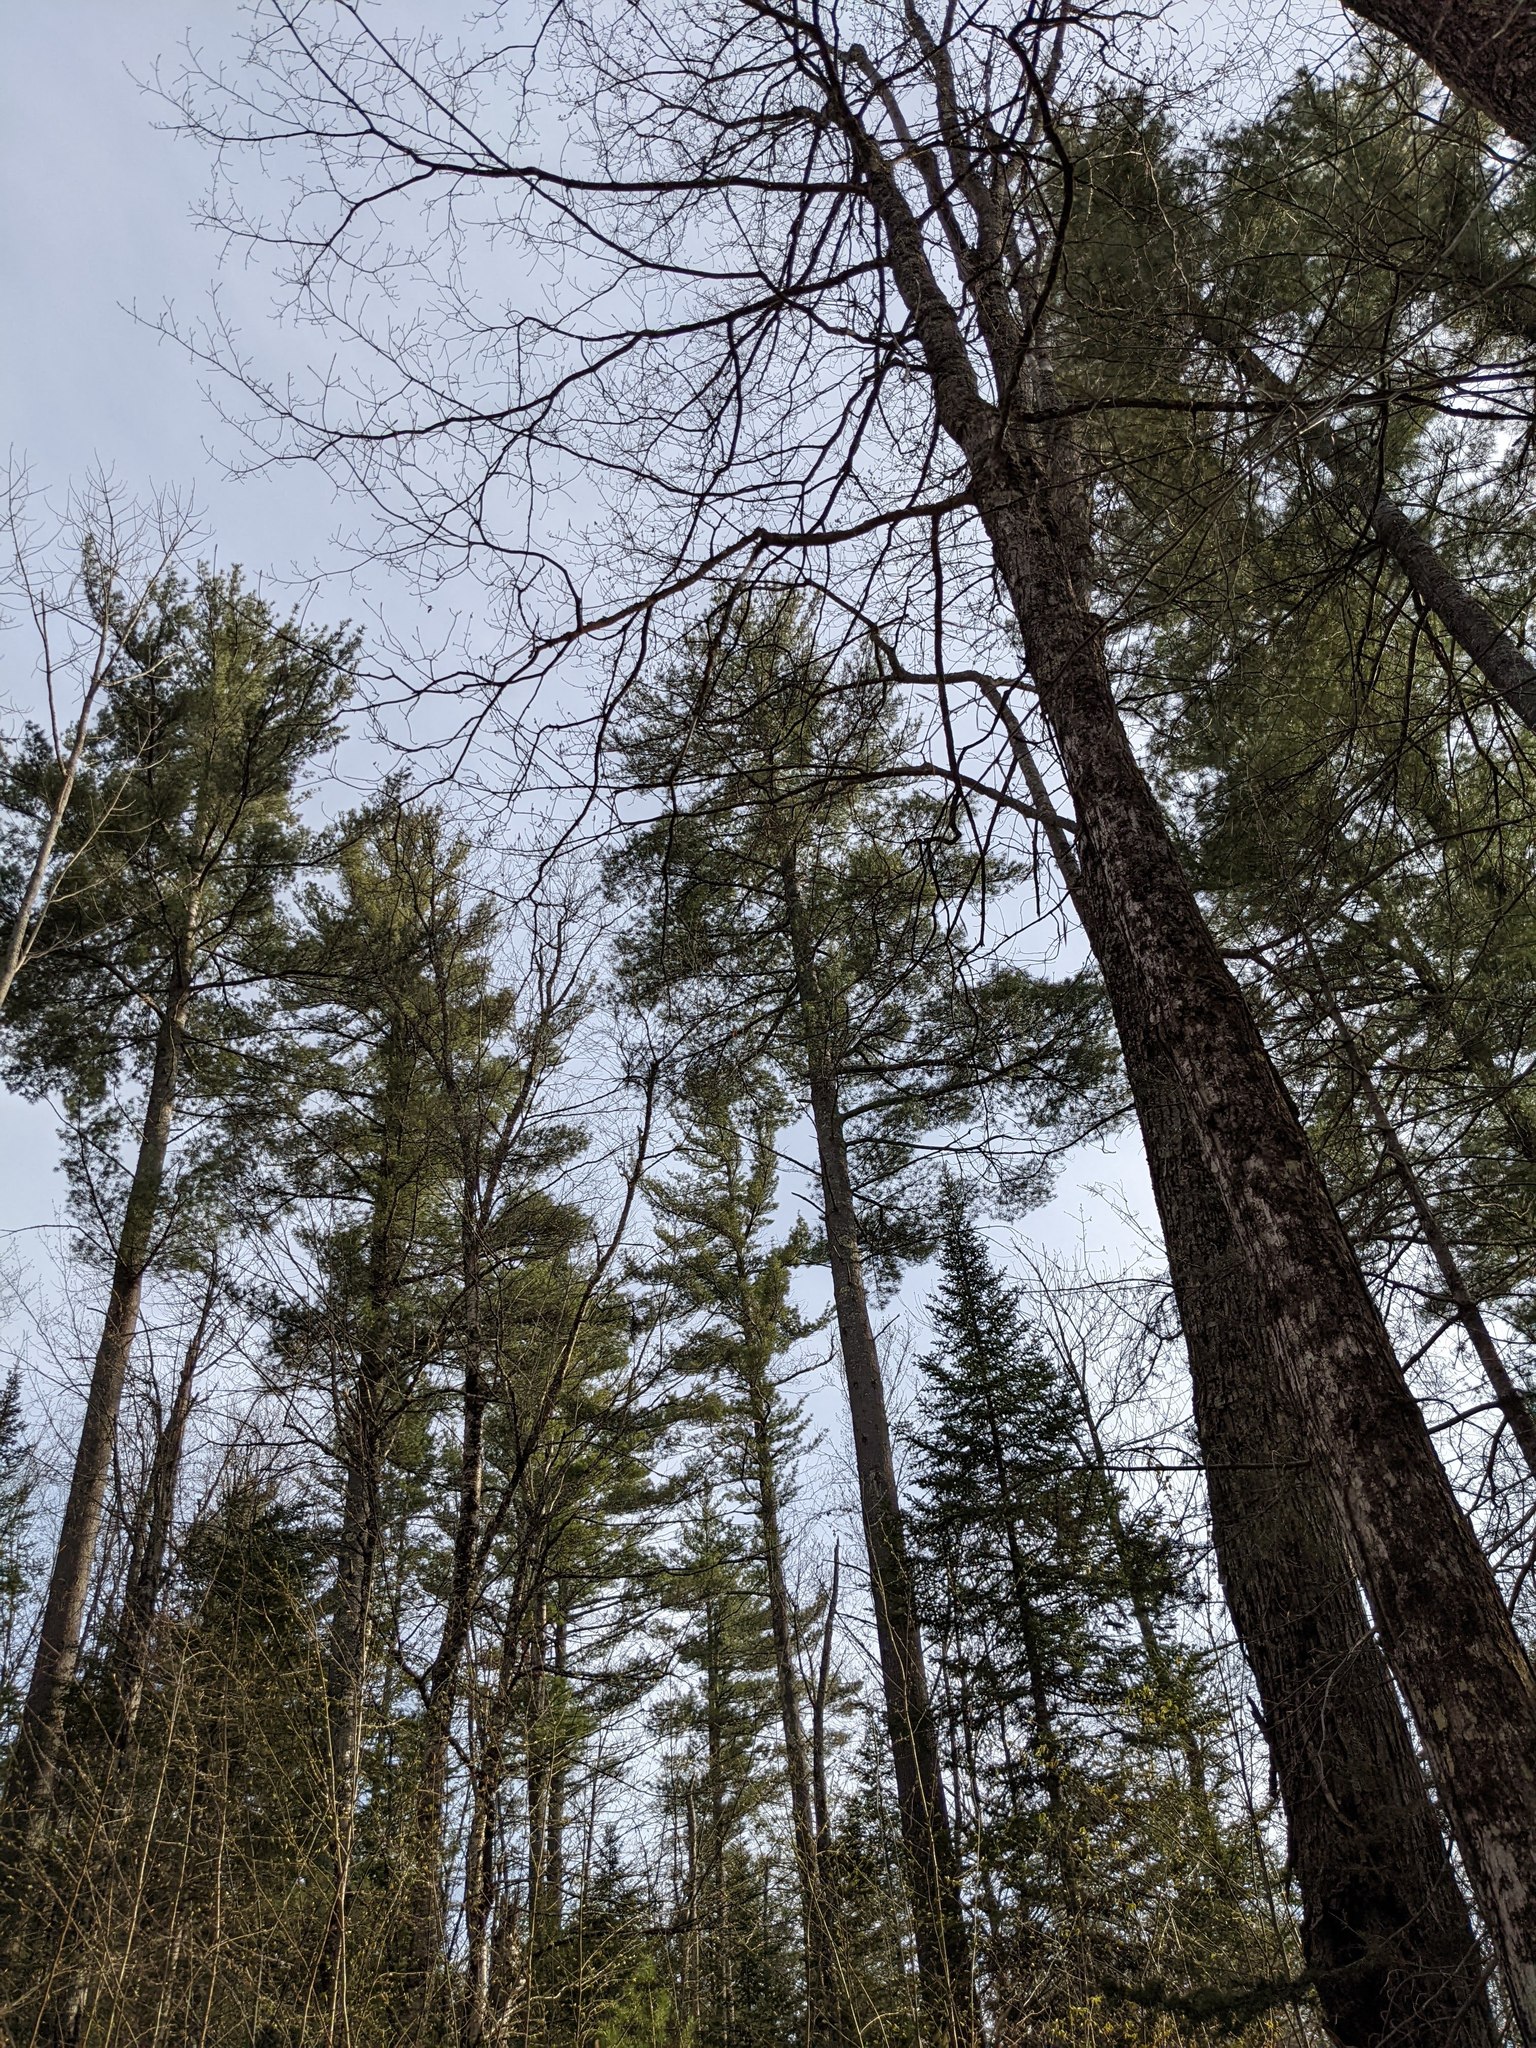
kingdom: Plantae
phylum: Tracheophyta
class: Pinopsida
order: Pinales
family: Pinaceae
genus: Pinus
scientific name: Pinus strobus
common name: Weymouth pine
